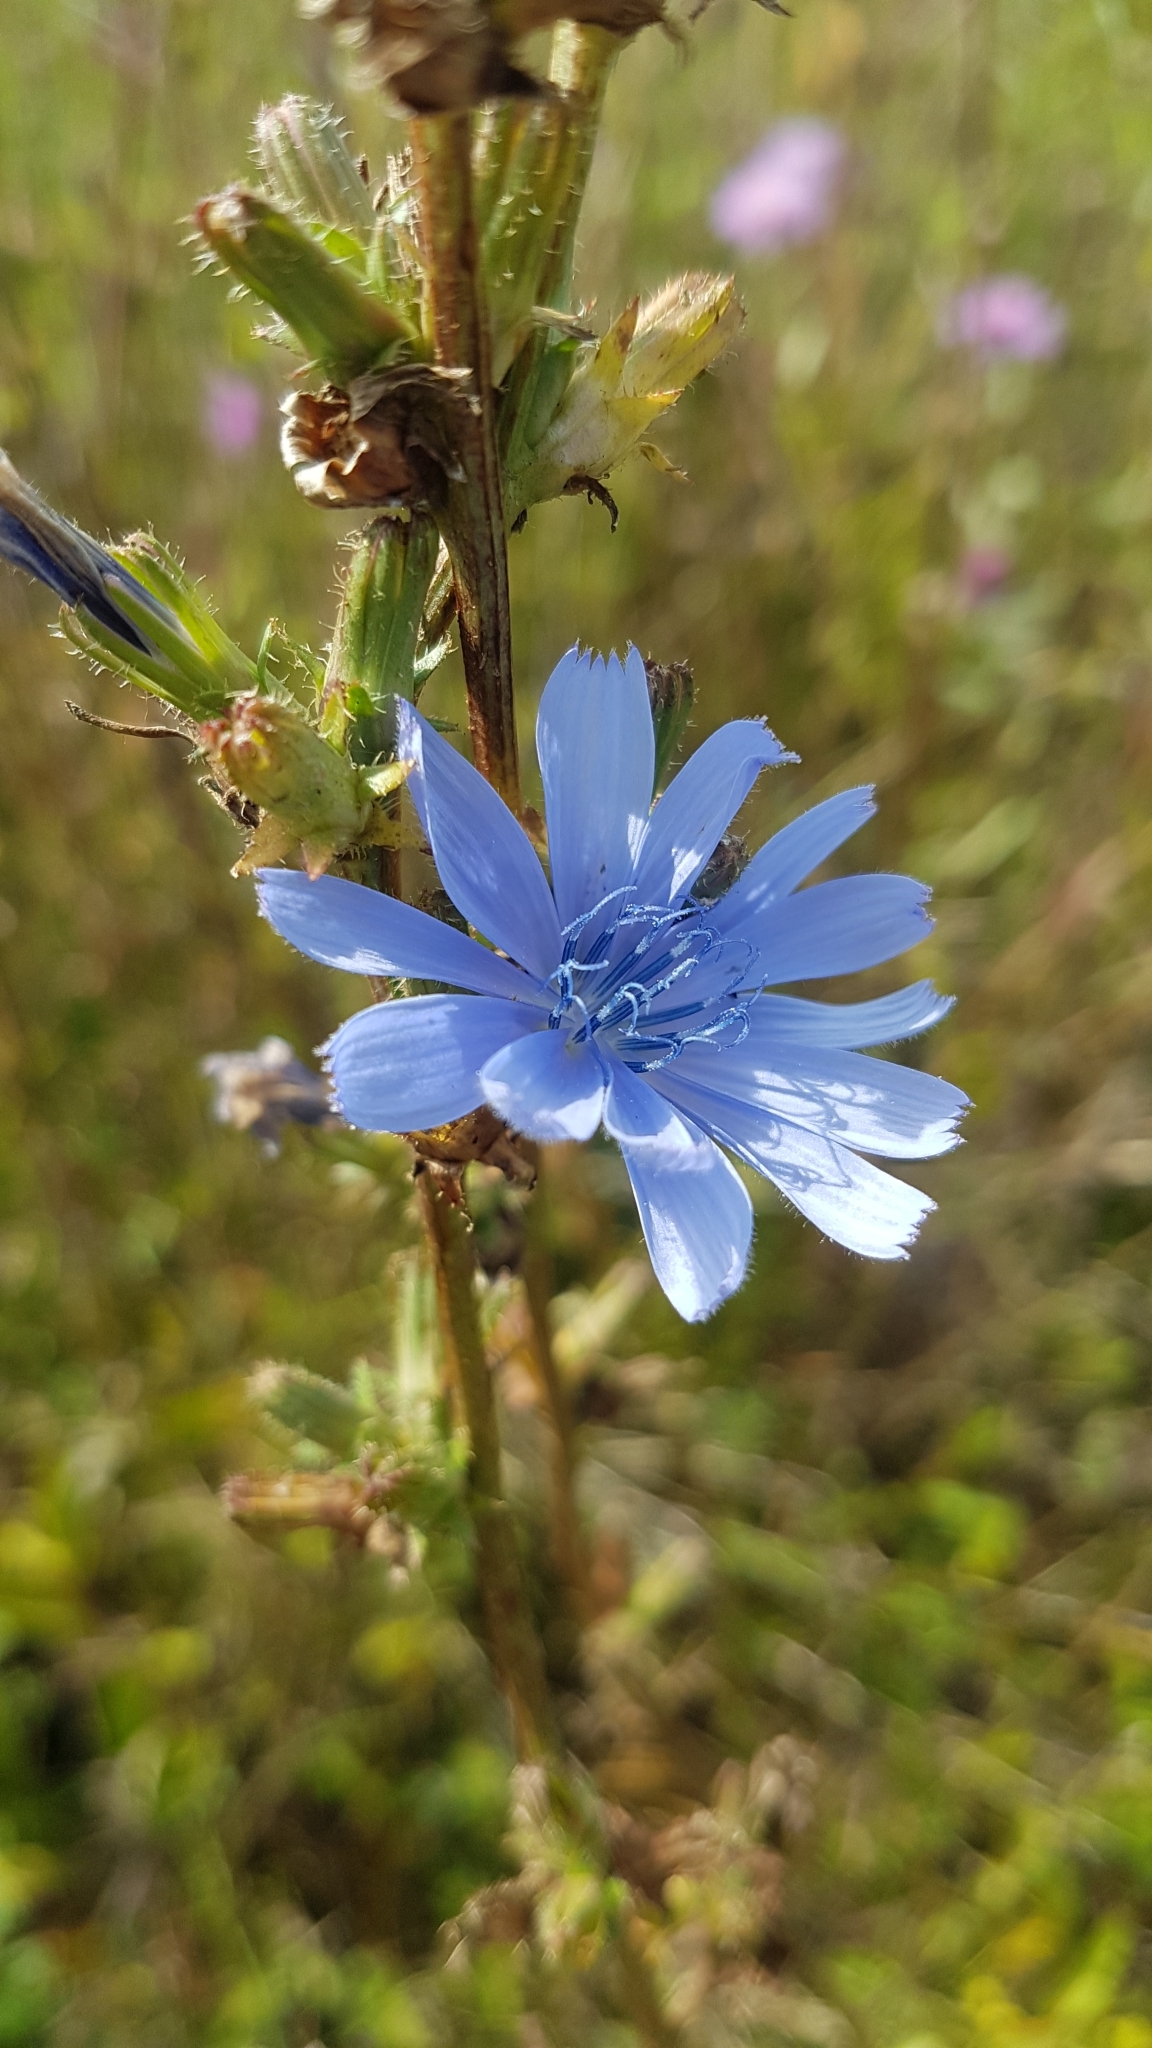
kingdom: Plantae
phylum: Tracheophyta
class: Magnoliopsida
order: Asterales
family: Asteraceae
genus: Cichorium
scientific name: Cichorium intybus
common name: Chicory
